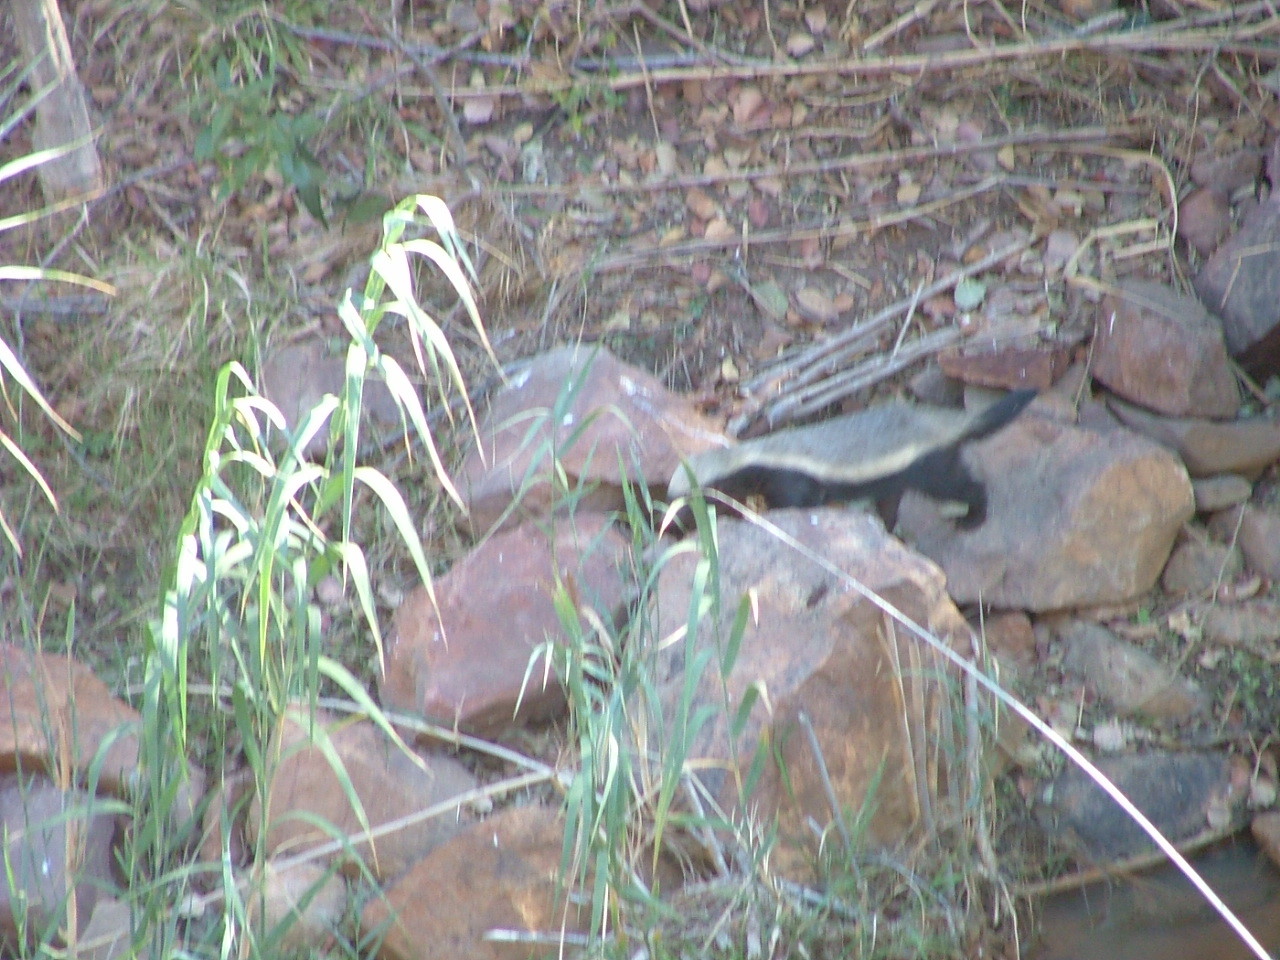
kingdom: Animalia
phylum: Chordata
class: Mammalia
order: Carnivora
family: Mustelidae
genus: Mellivora
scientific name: Mellivora capensis
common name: Honey badger
